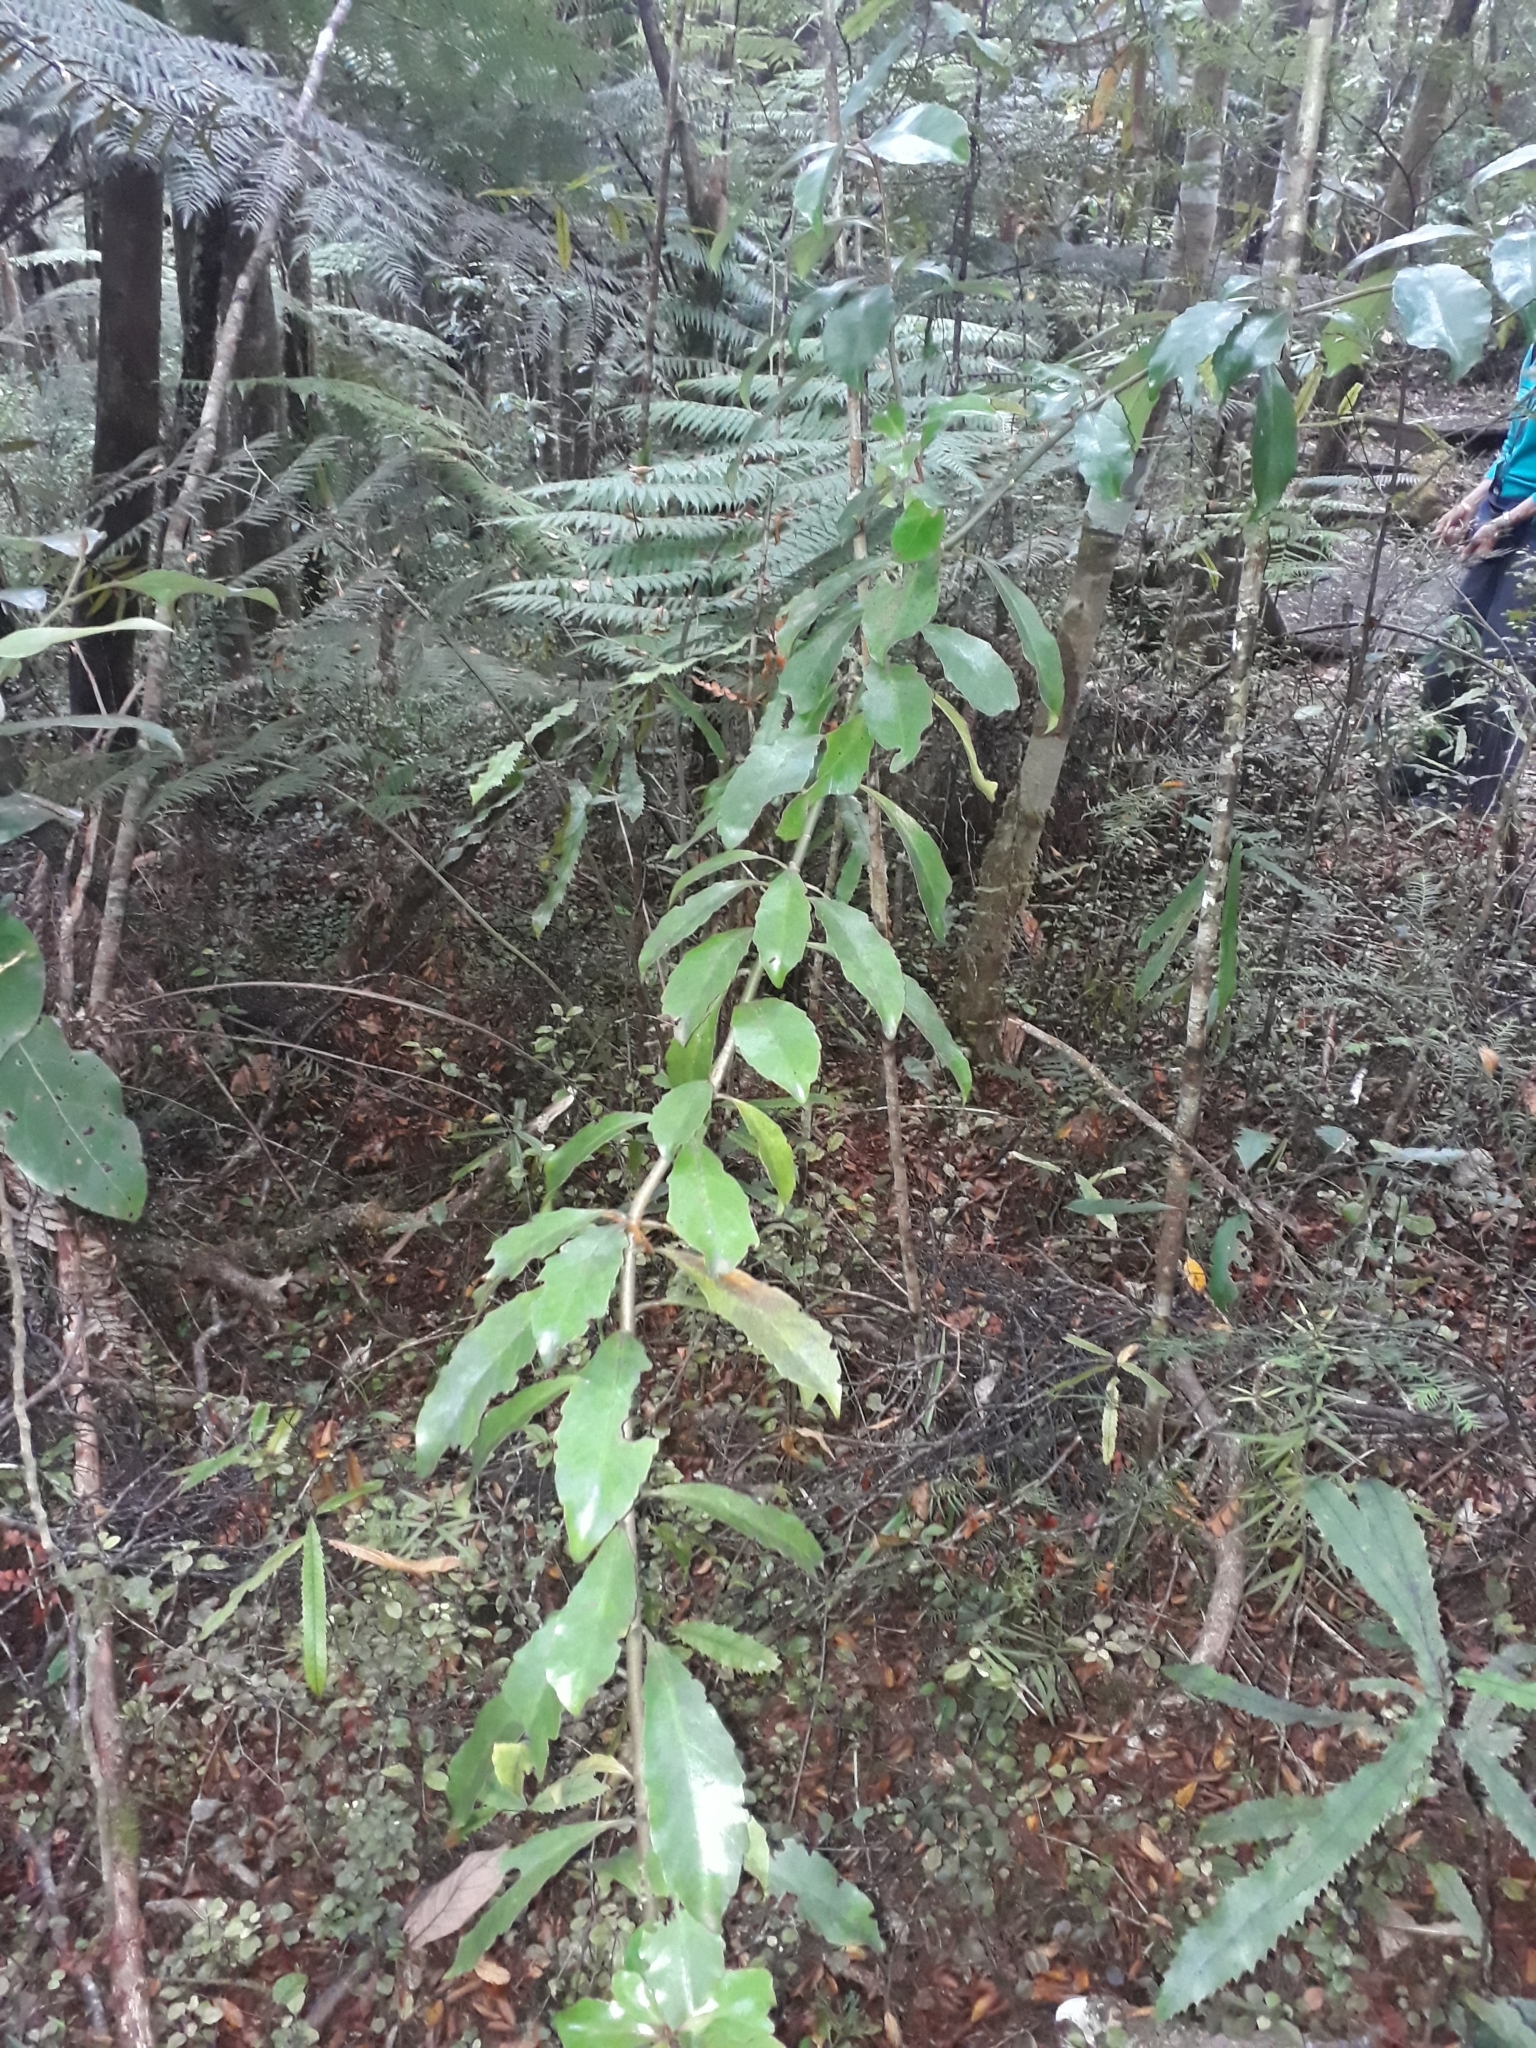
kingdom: Plantae
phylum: Tracheophyta
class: Magnoliopsida
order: Asterales
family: Alseuosmiaceae
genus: Alseuosmia
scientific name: Alseuosmia macrophylla
